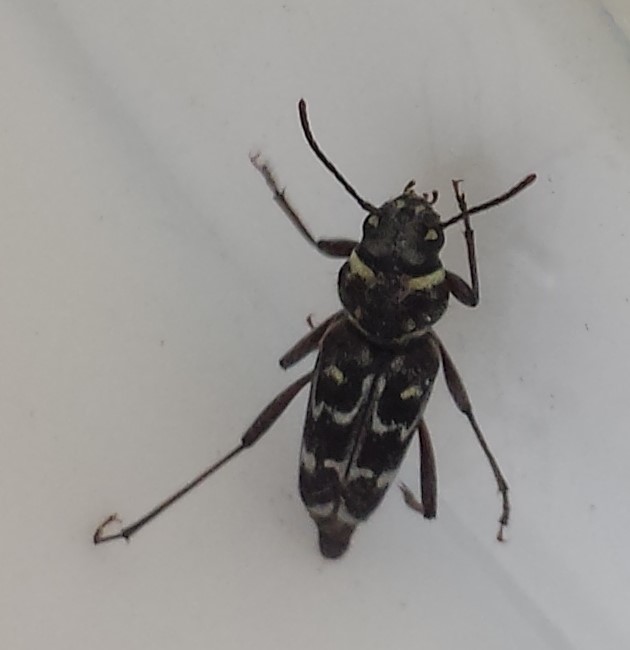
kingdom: Animalia
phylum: Arthropoda
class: Insecta
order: Coleoptera
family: Cerambycidae
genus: Xylotrechus
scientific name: Xylotrechus undulatus
